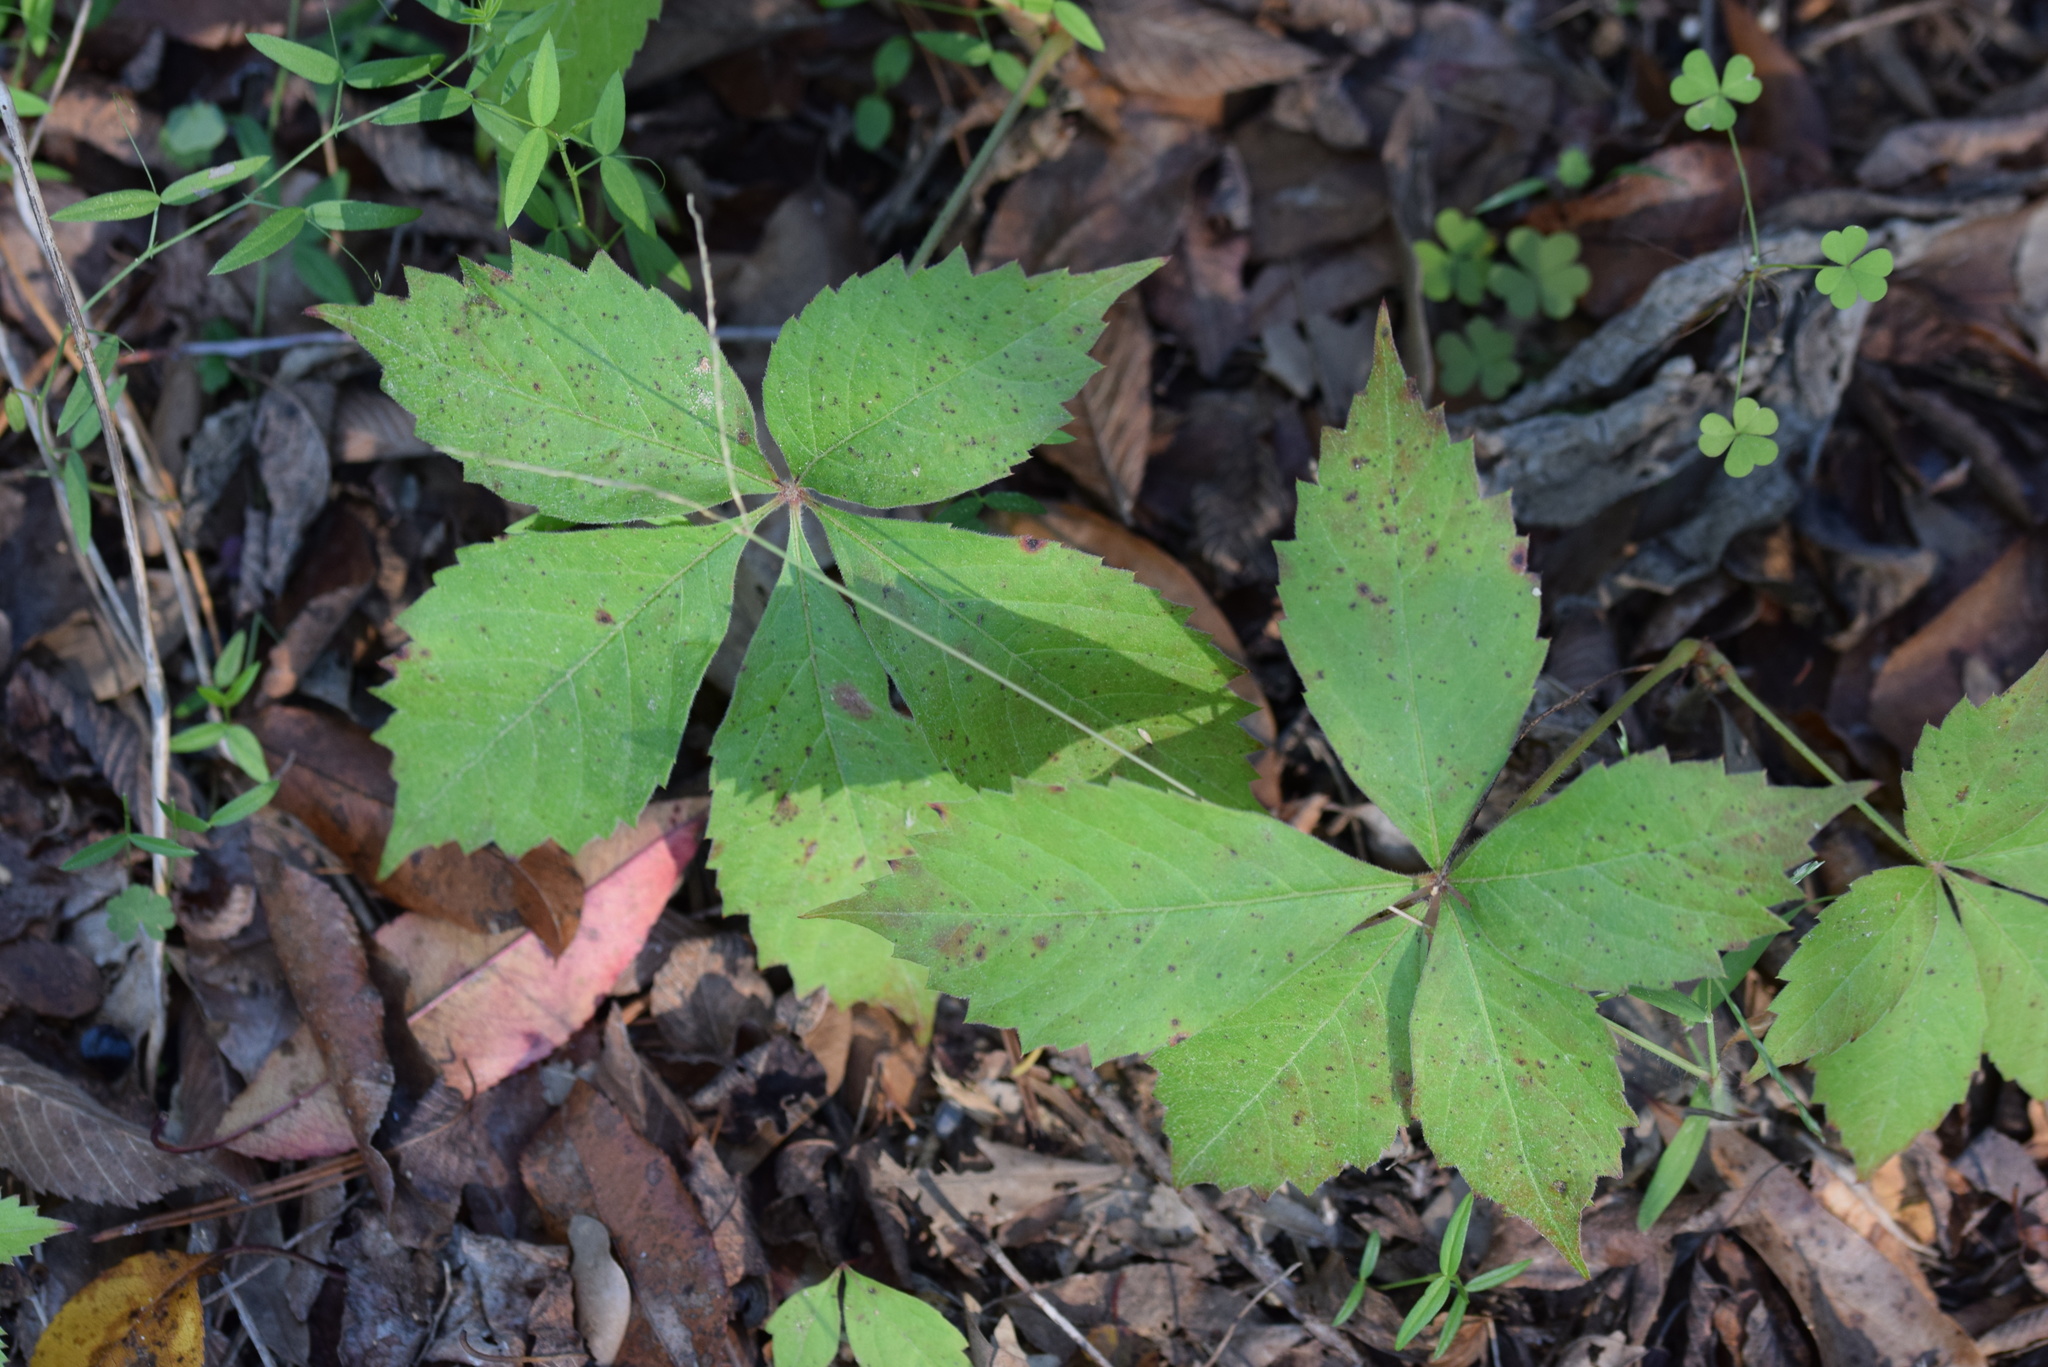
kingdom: Plantae
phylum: Tracheophyta
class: Magnoliopsida
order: Vitales
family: Vitaceae
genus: Parthenocissus
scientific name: Parthenocissus quinquefolia
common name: Virginia-creeper
